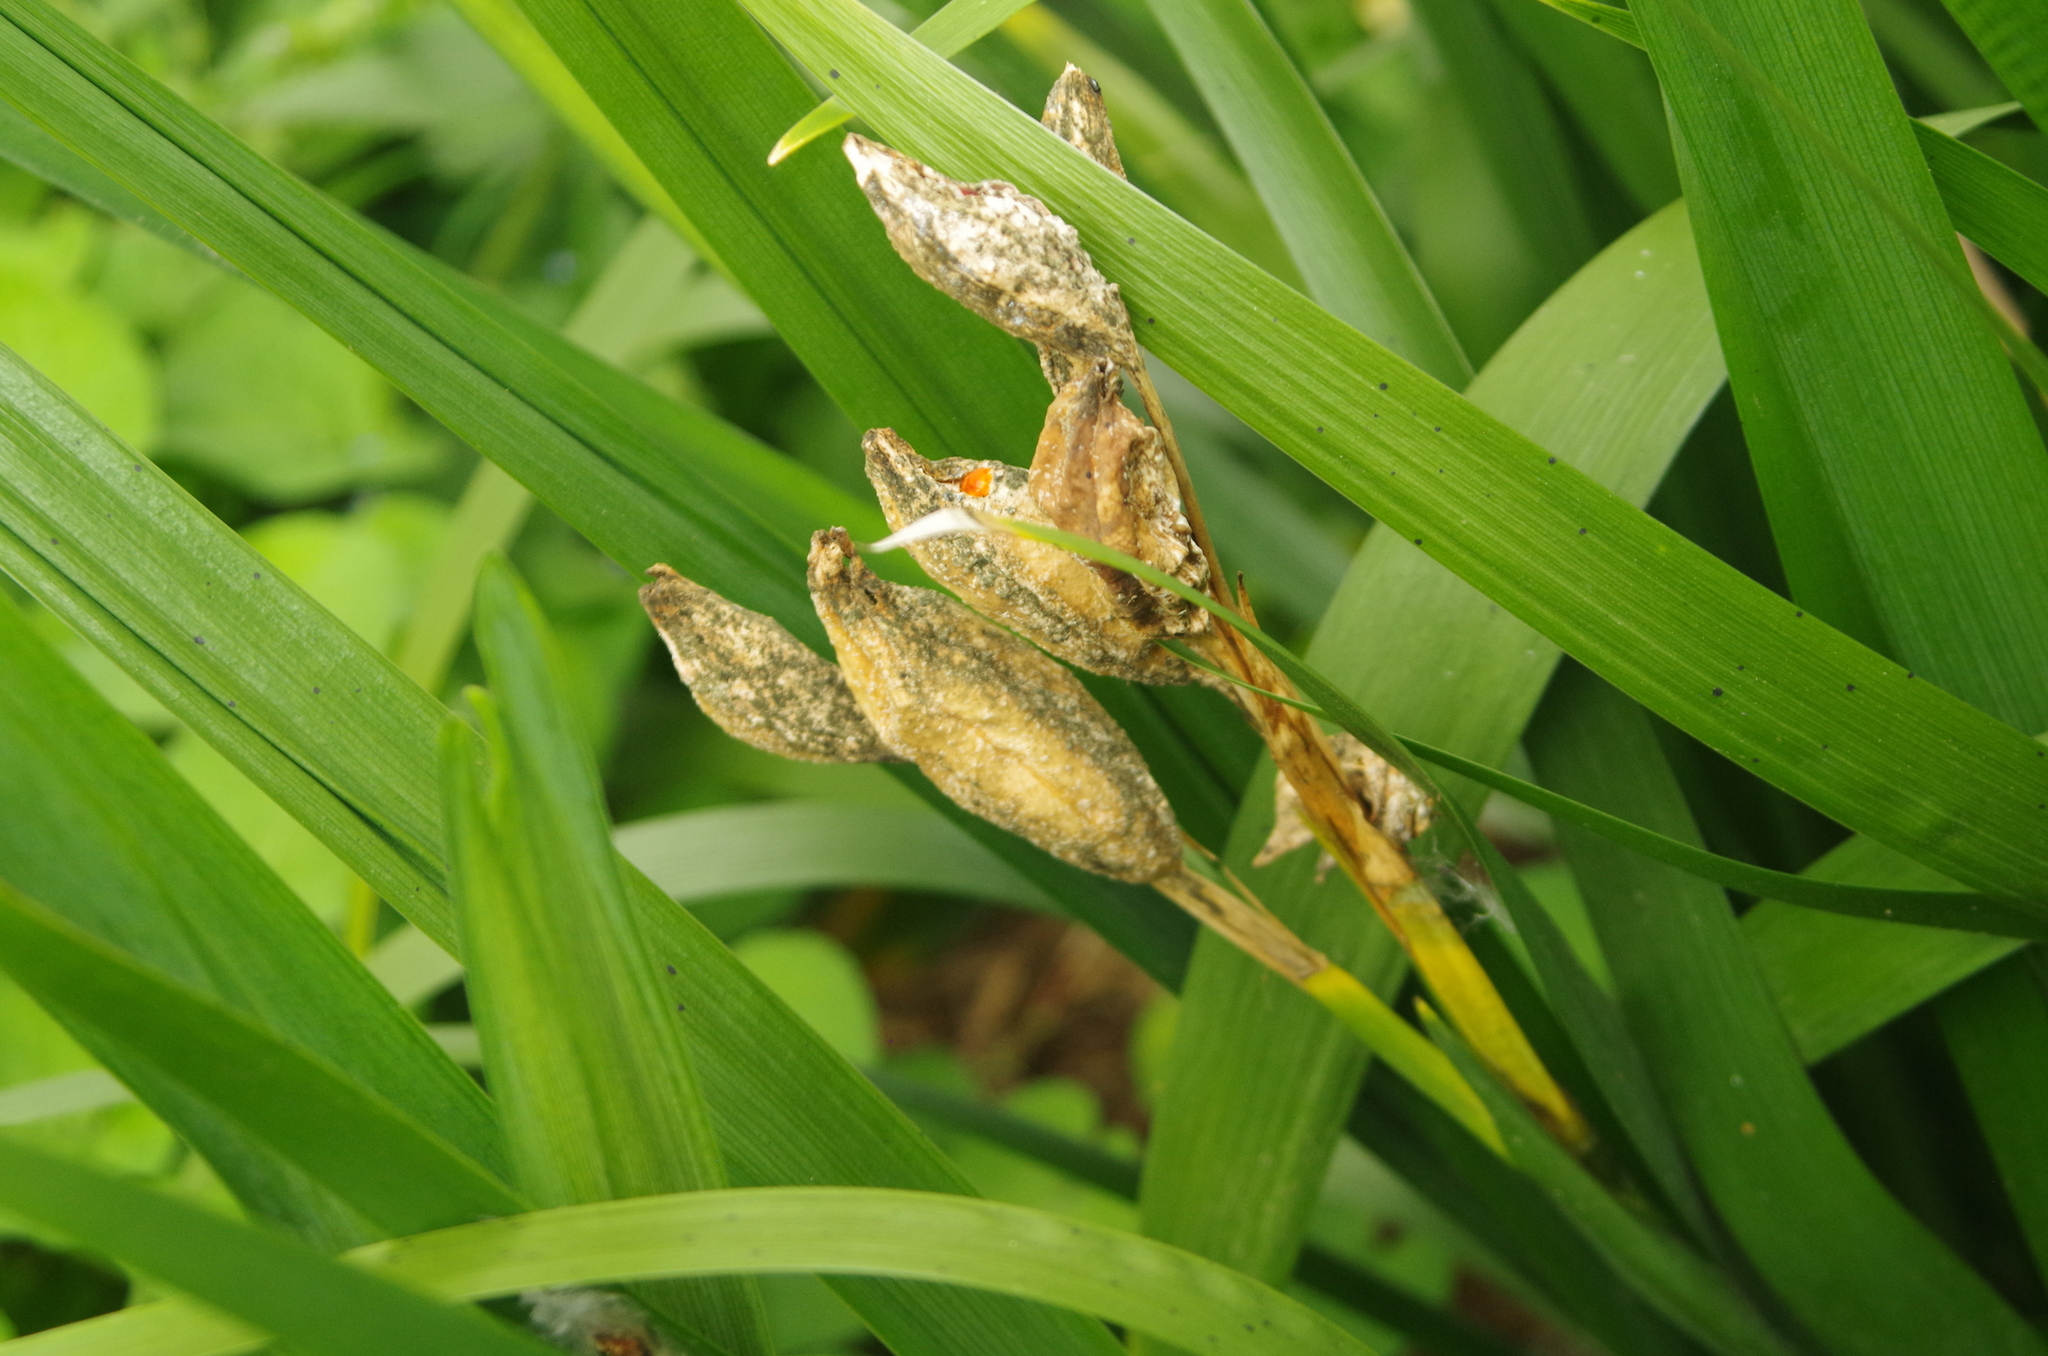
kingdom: Plantae
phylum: Tracheophyta
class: Liliopsida
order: Asparagales
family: Iridaceae
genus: Iris
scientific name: Iris foetidissima
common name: Stinking iris
